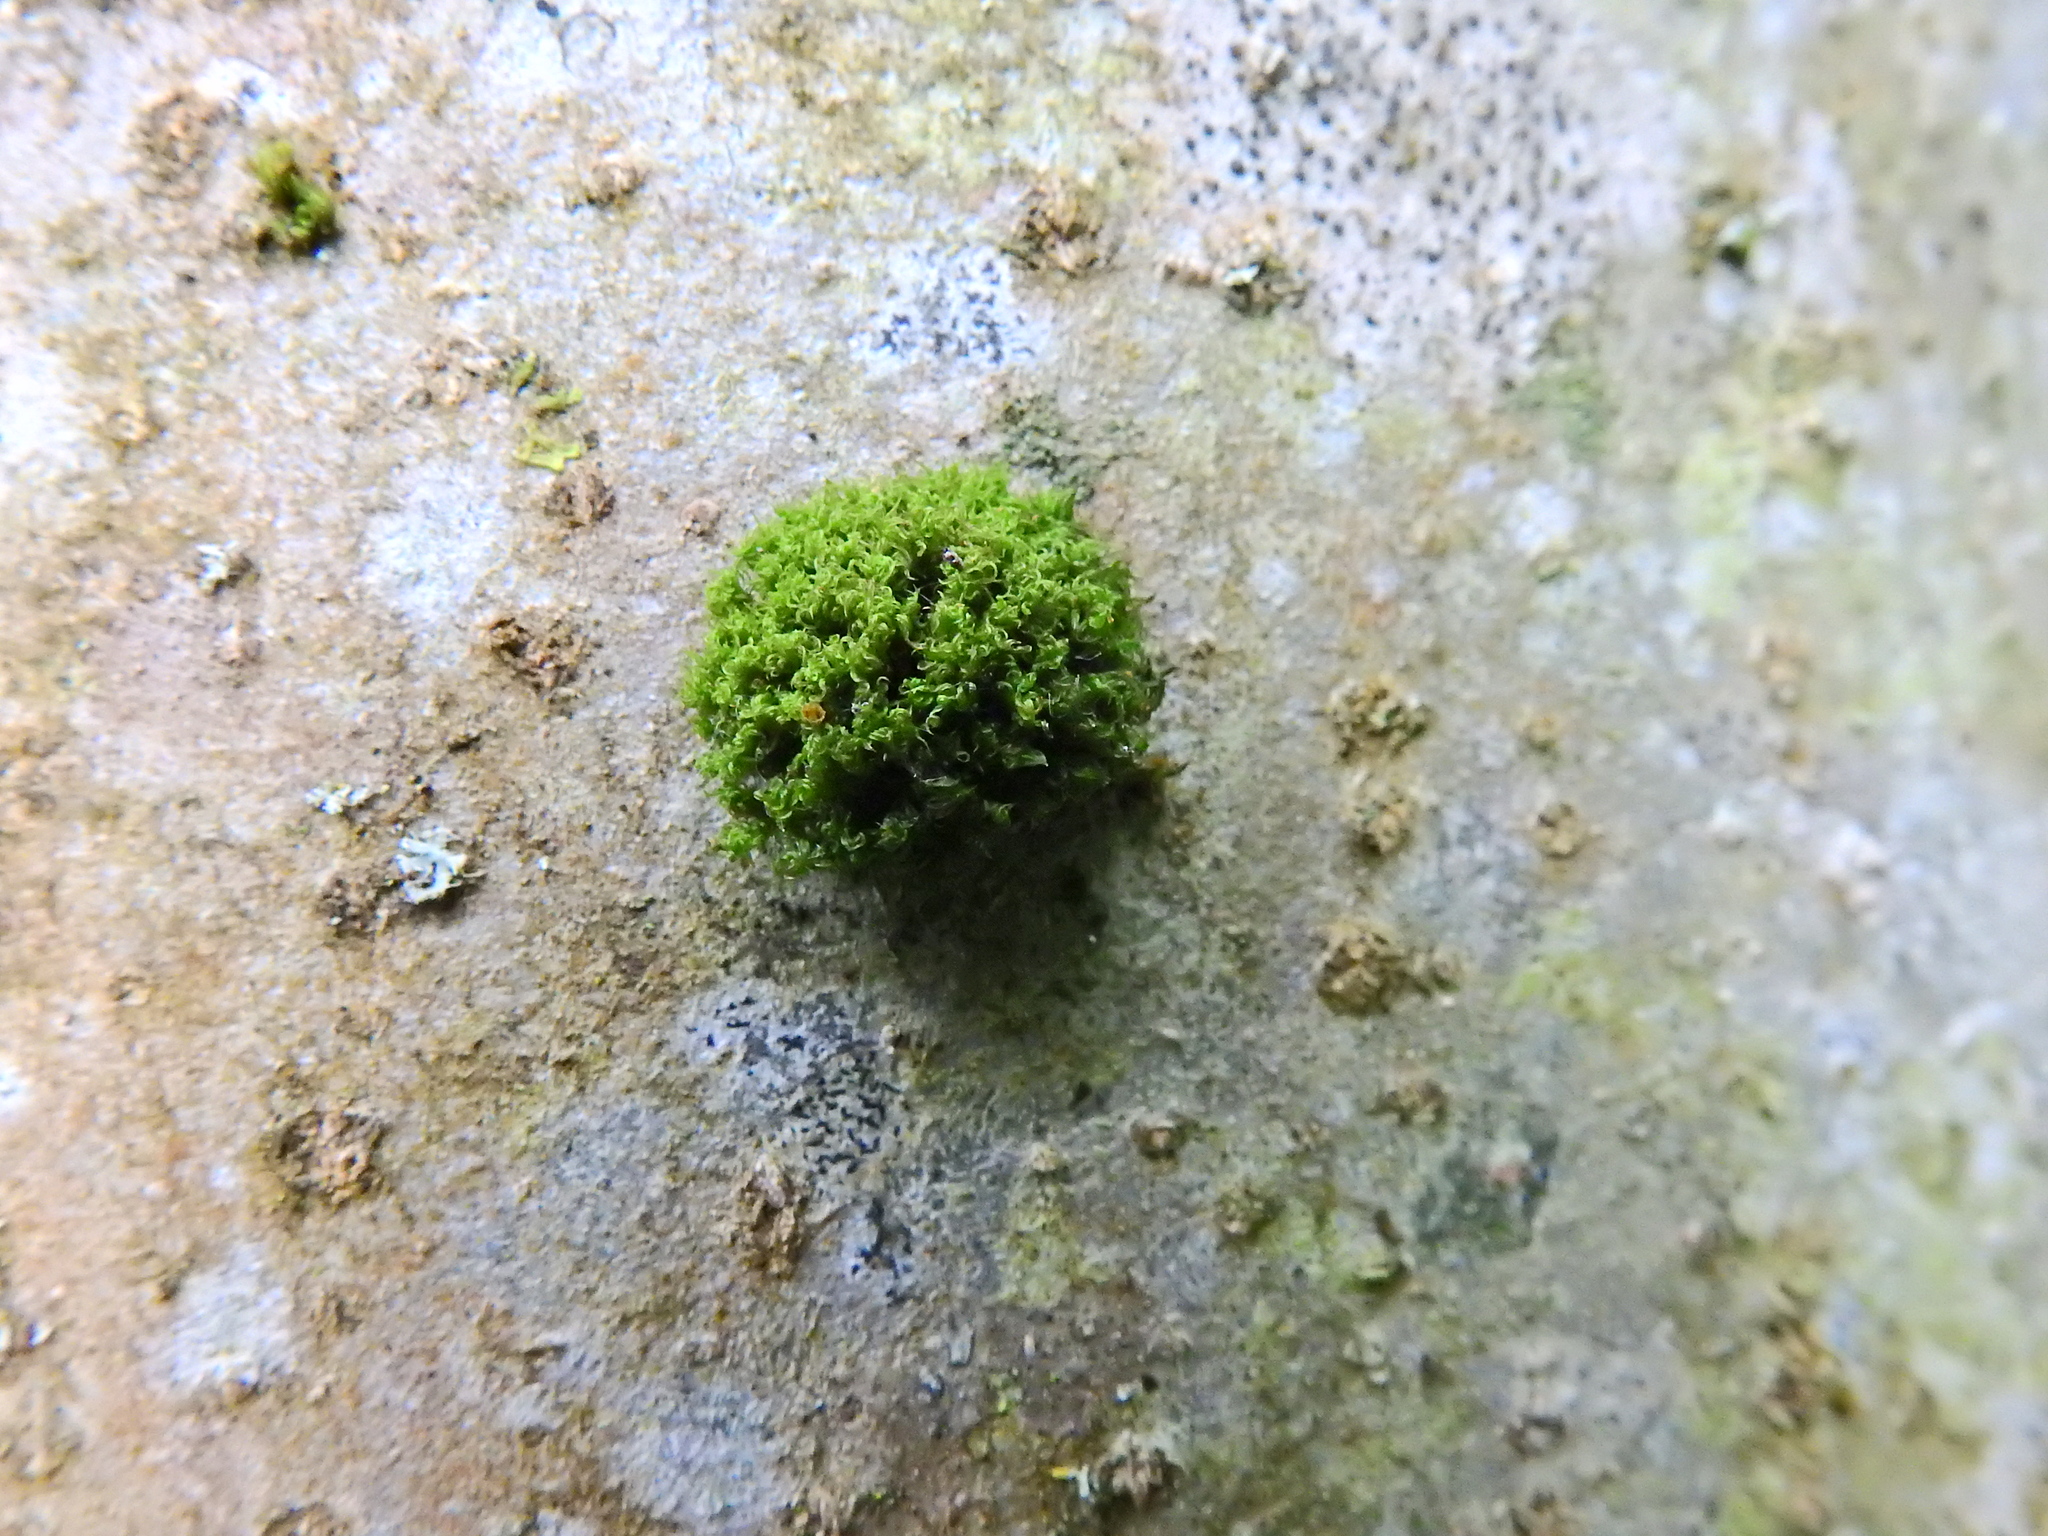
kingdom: Plantae
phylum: Bryophyta
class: Bryopsida
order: Orthotrichales
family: Orthotrichaceae
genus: Ulota
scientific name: Ulota
